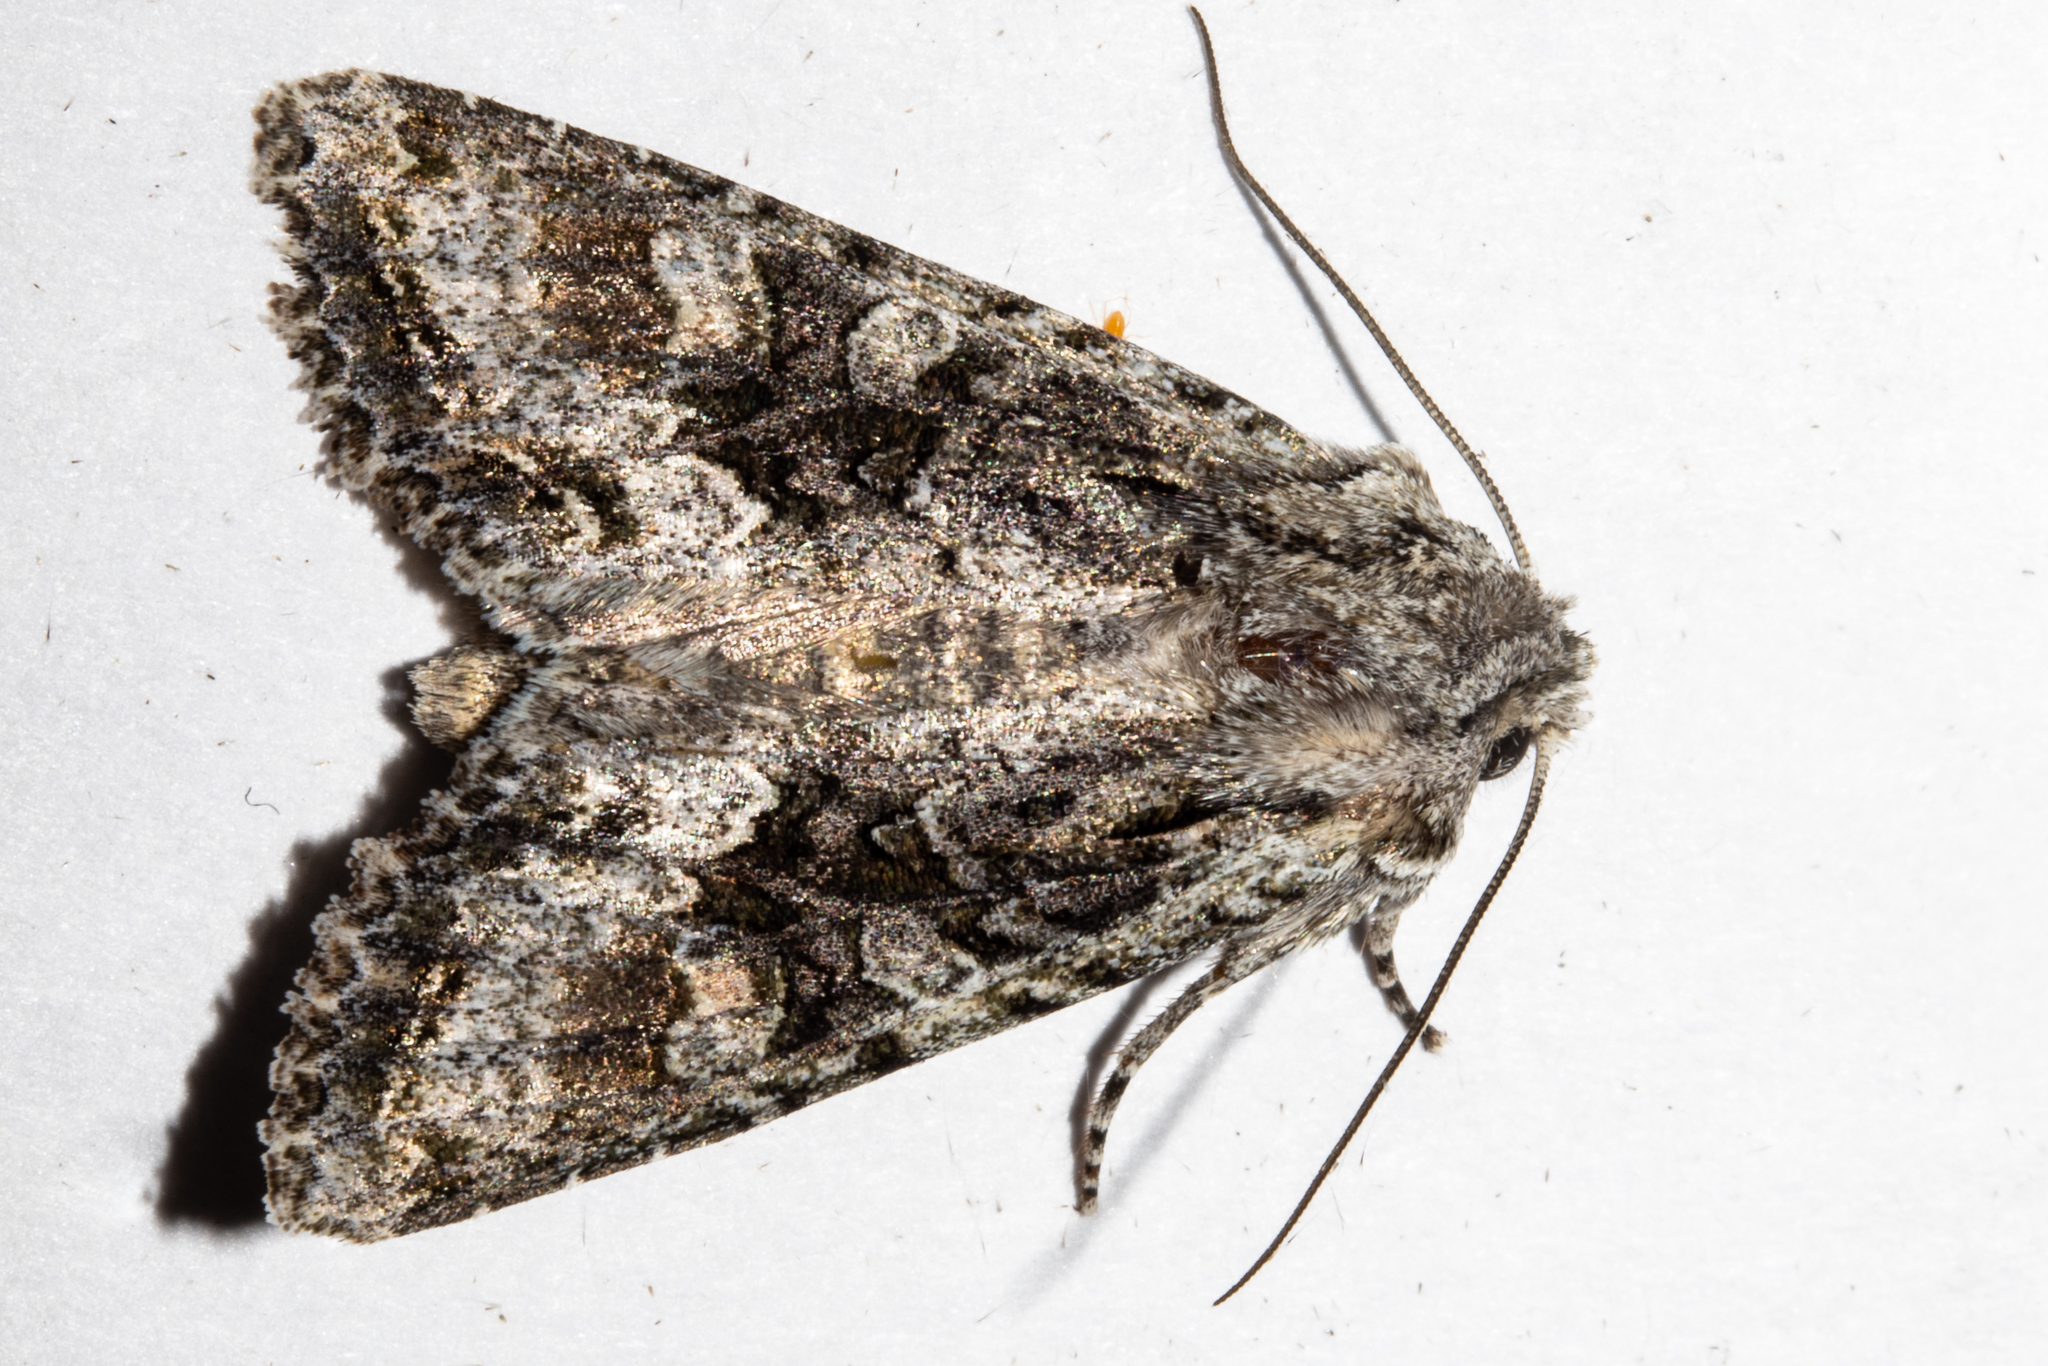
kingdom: Animalia
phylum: Arthropoda
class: Insecta
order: Lepidoptera
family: Noctuidae
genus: Ichneutica
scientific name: Ichneutica mutans
